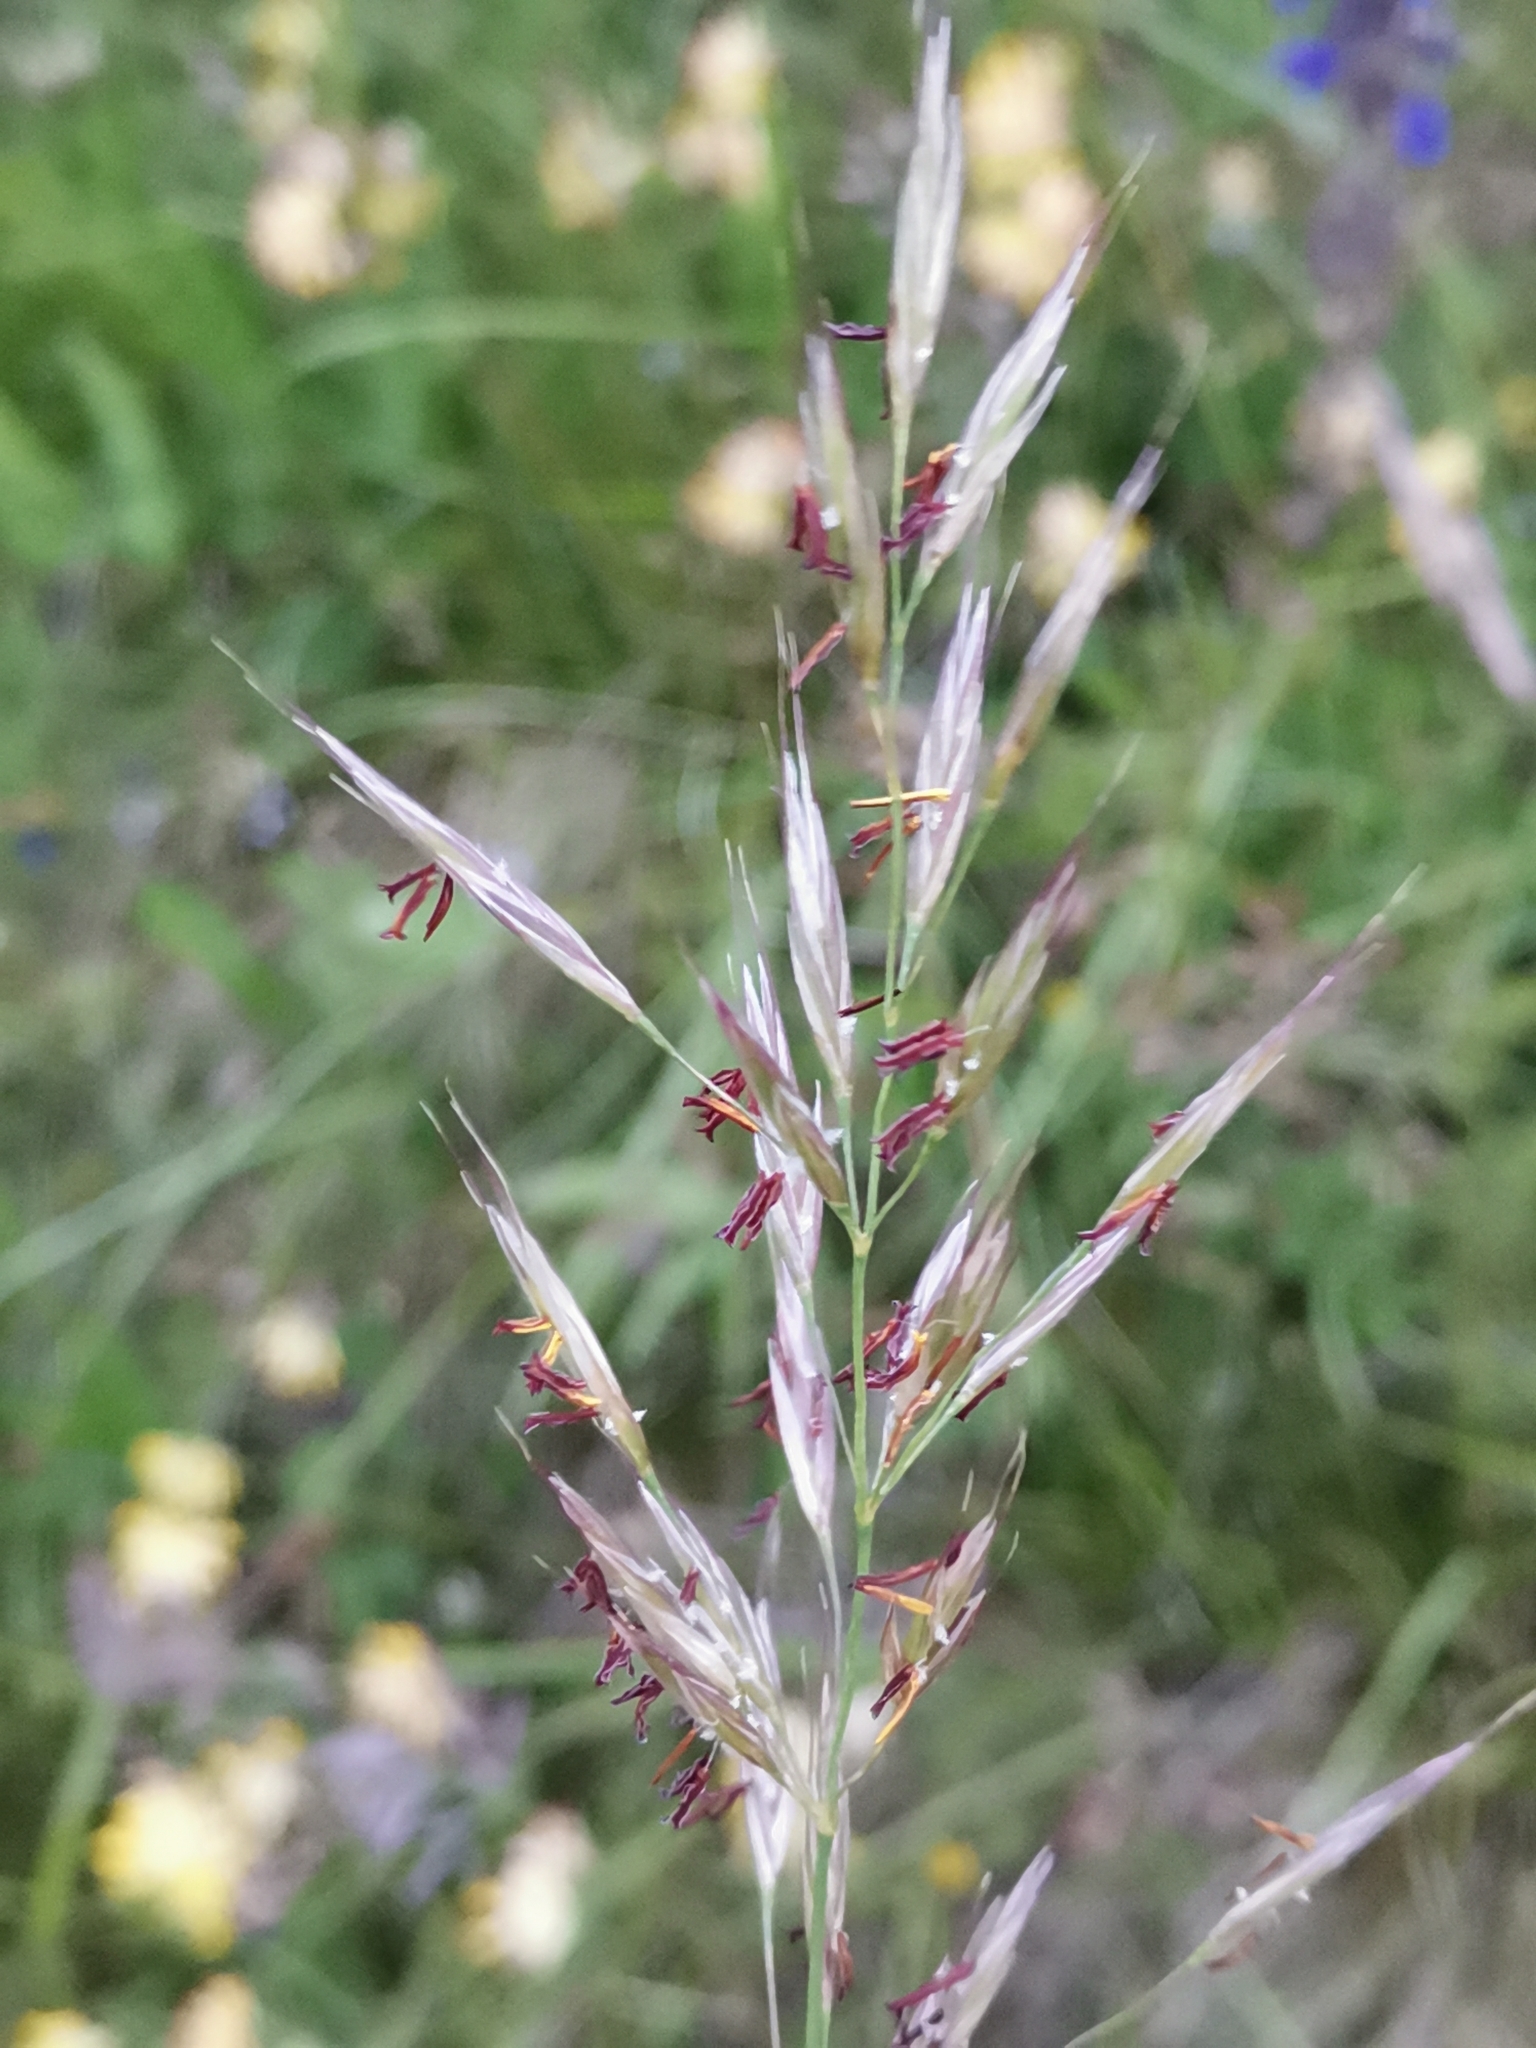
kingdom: Plantae
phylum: Tracheophyta
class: Liliopsida
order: Poales
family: Poaceae
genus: Bromus
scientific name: Bromus erectus
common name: Erect brome
